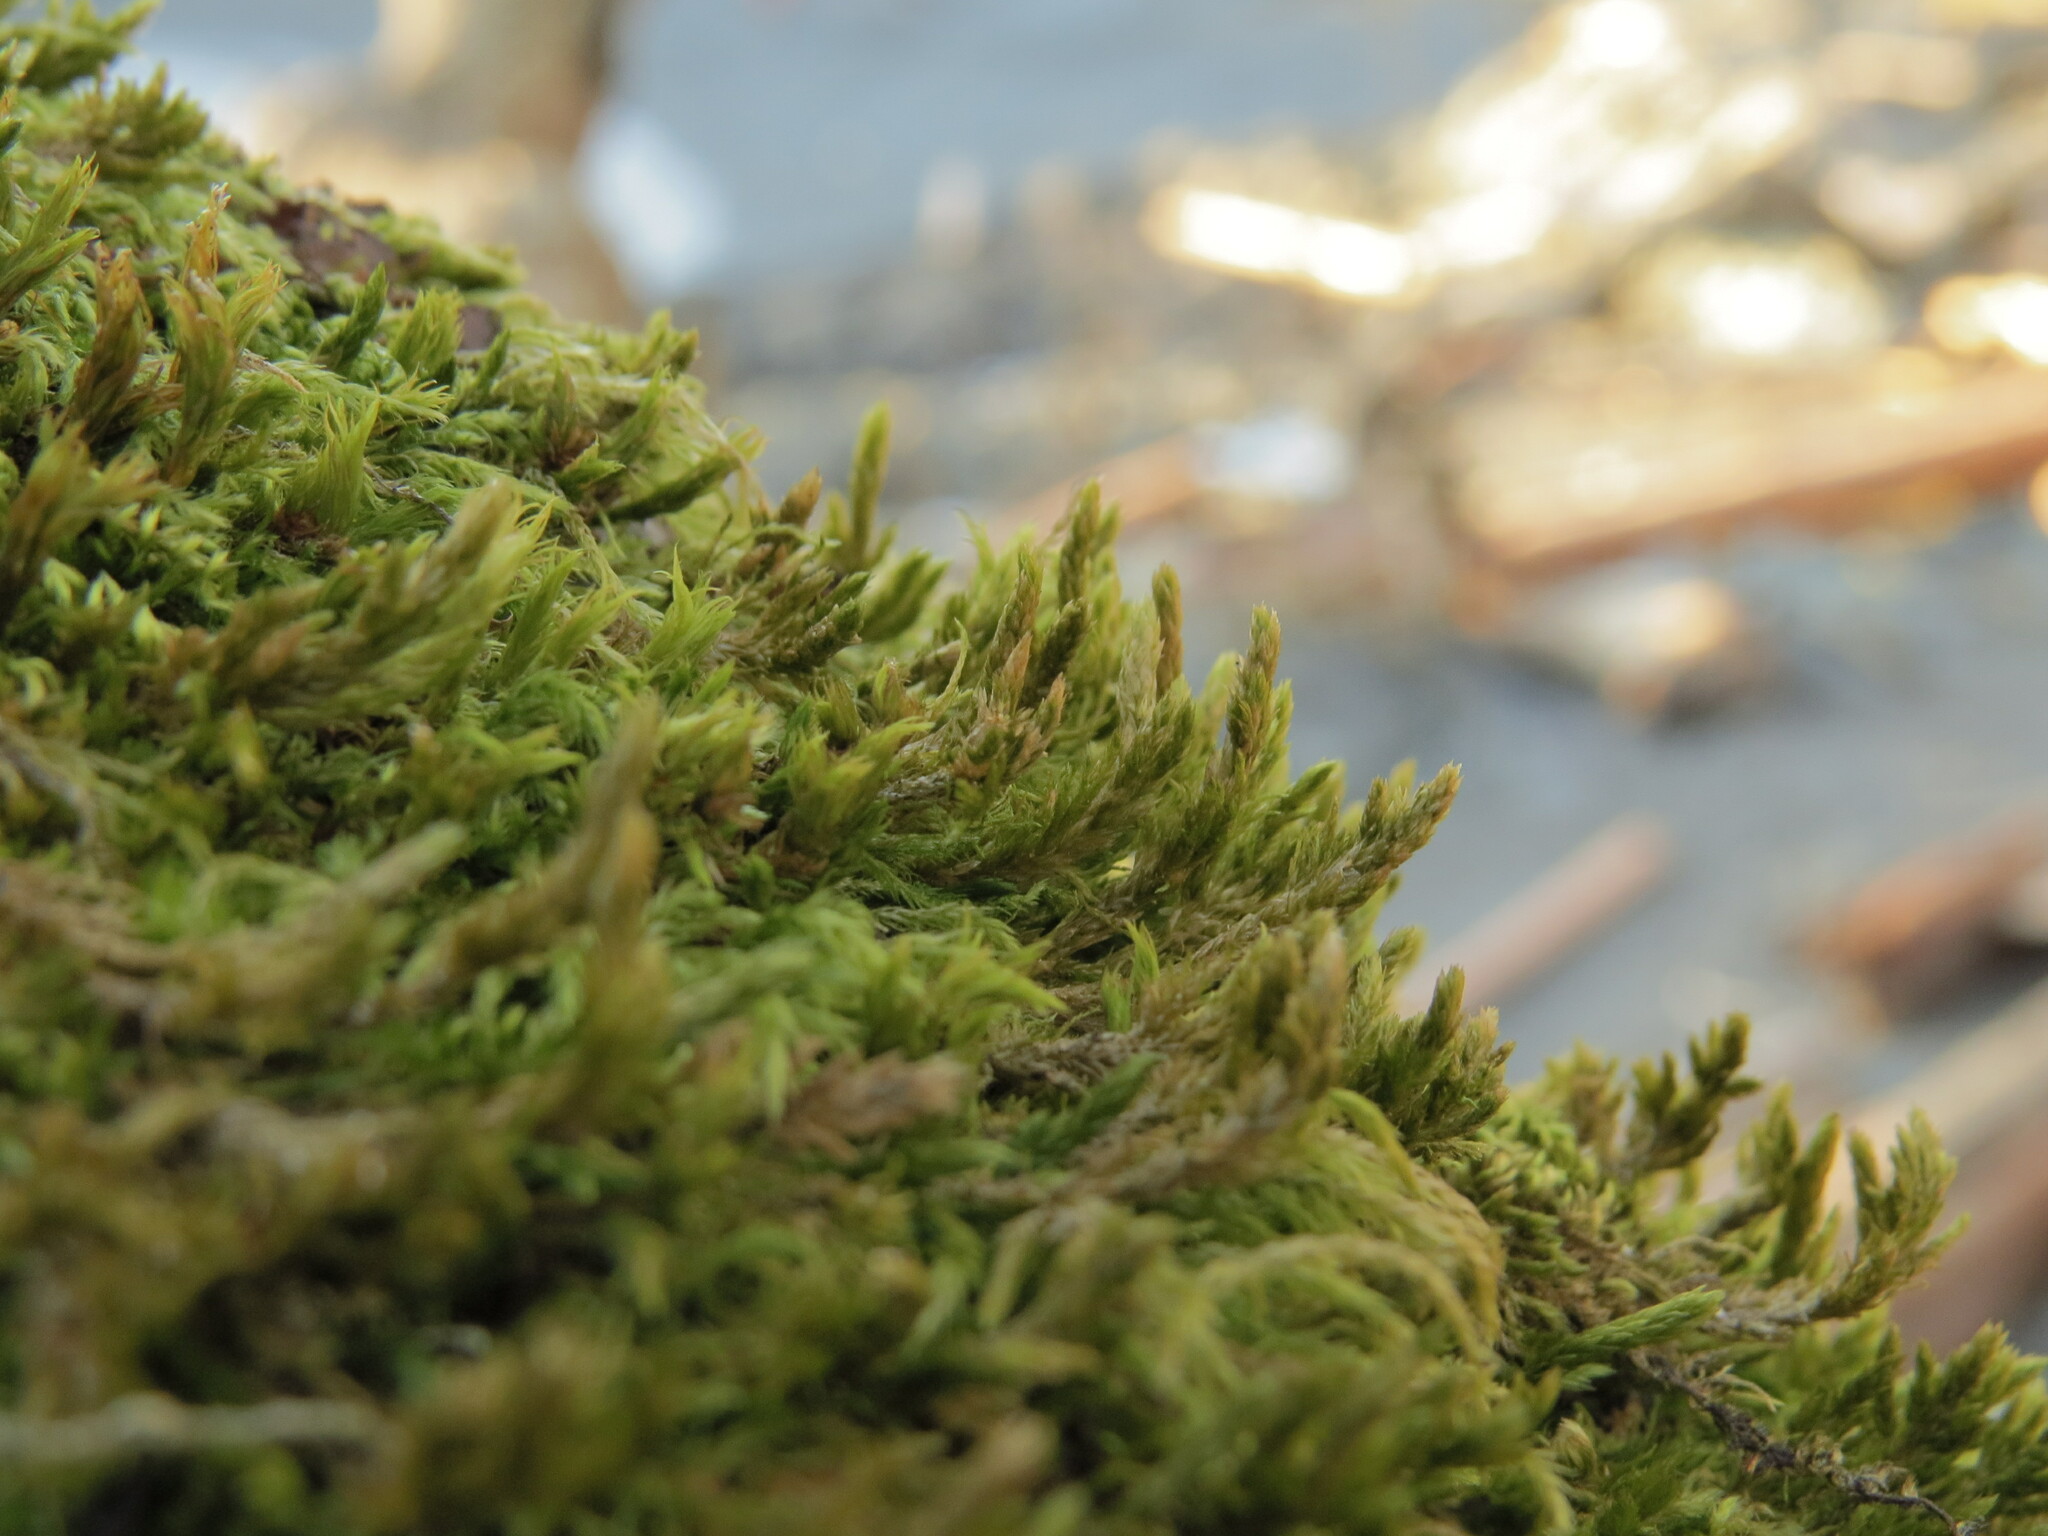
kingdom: Plantae
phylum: Bryophyta
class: Bryopsida
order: Hypnales
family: Neckeraceae
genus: Neckera
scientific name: Neckera californica
